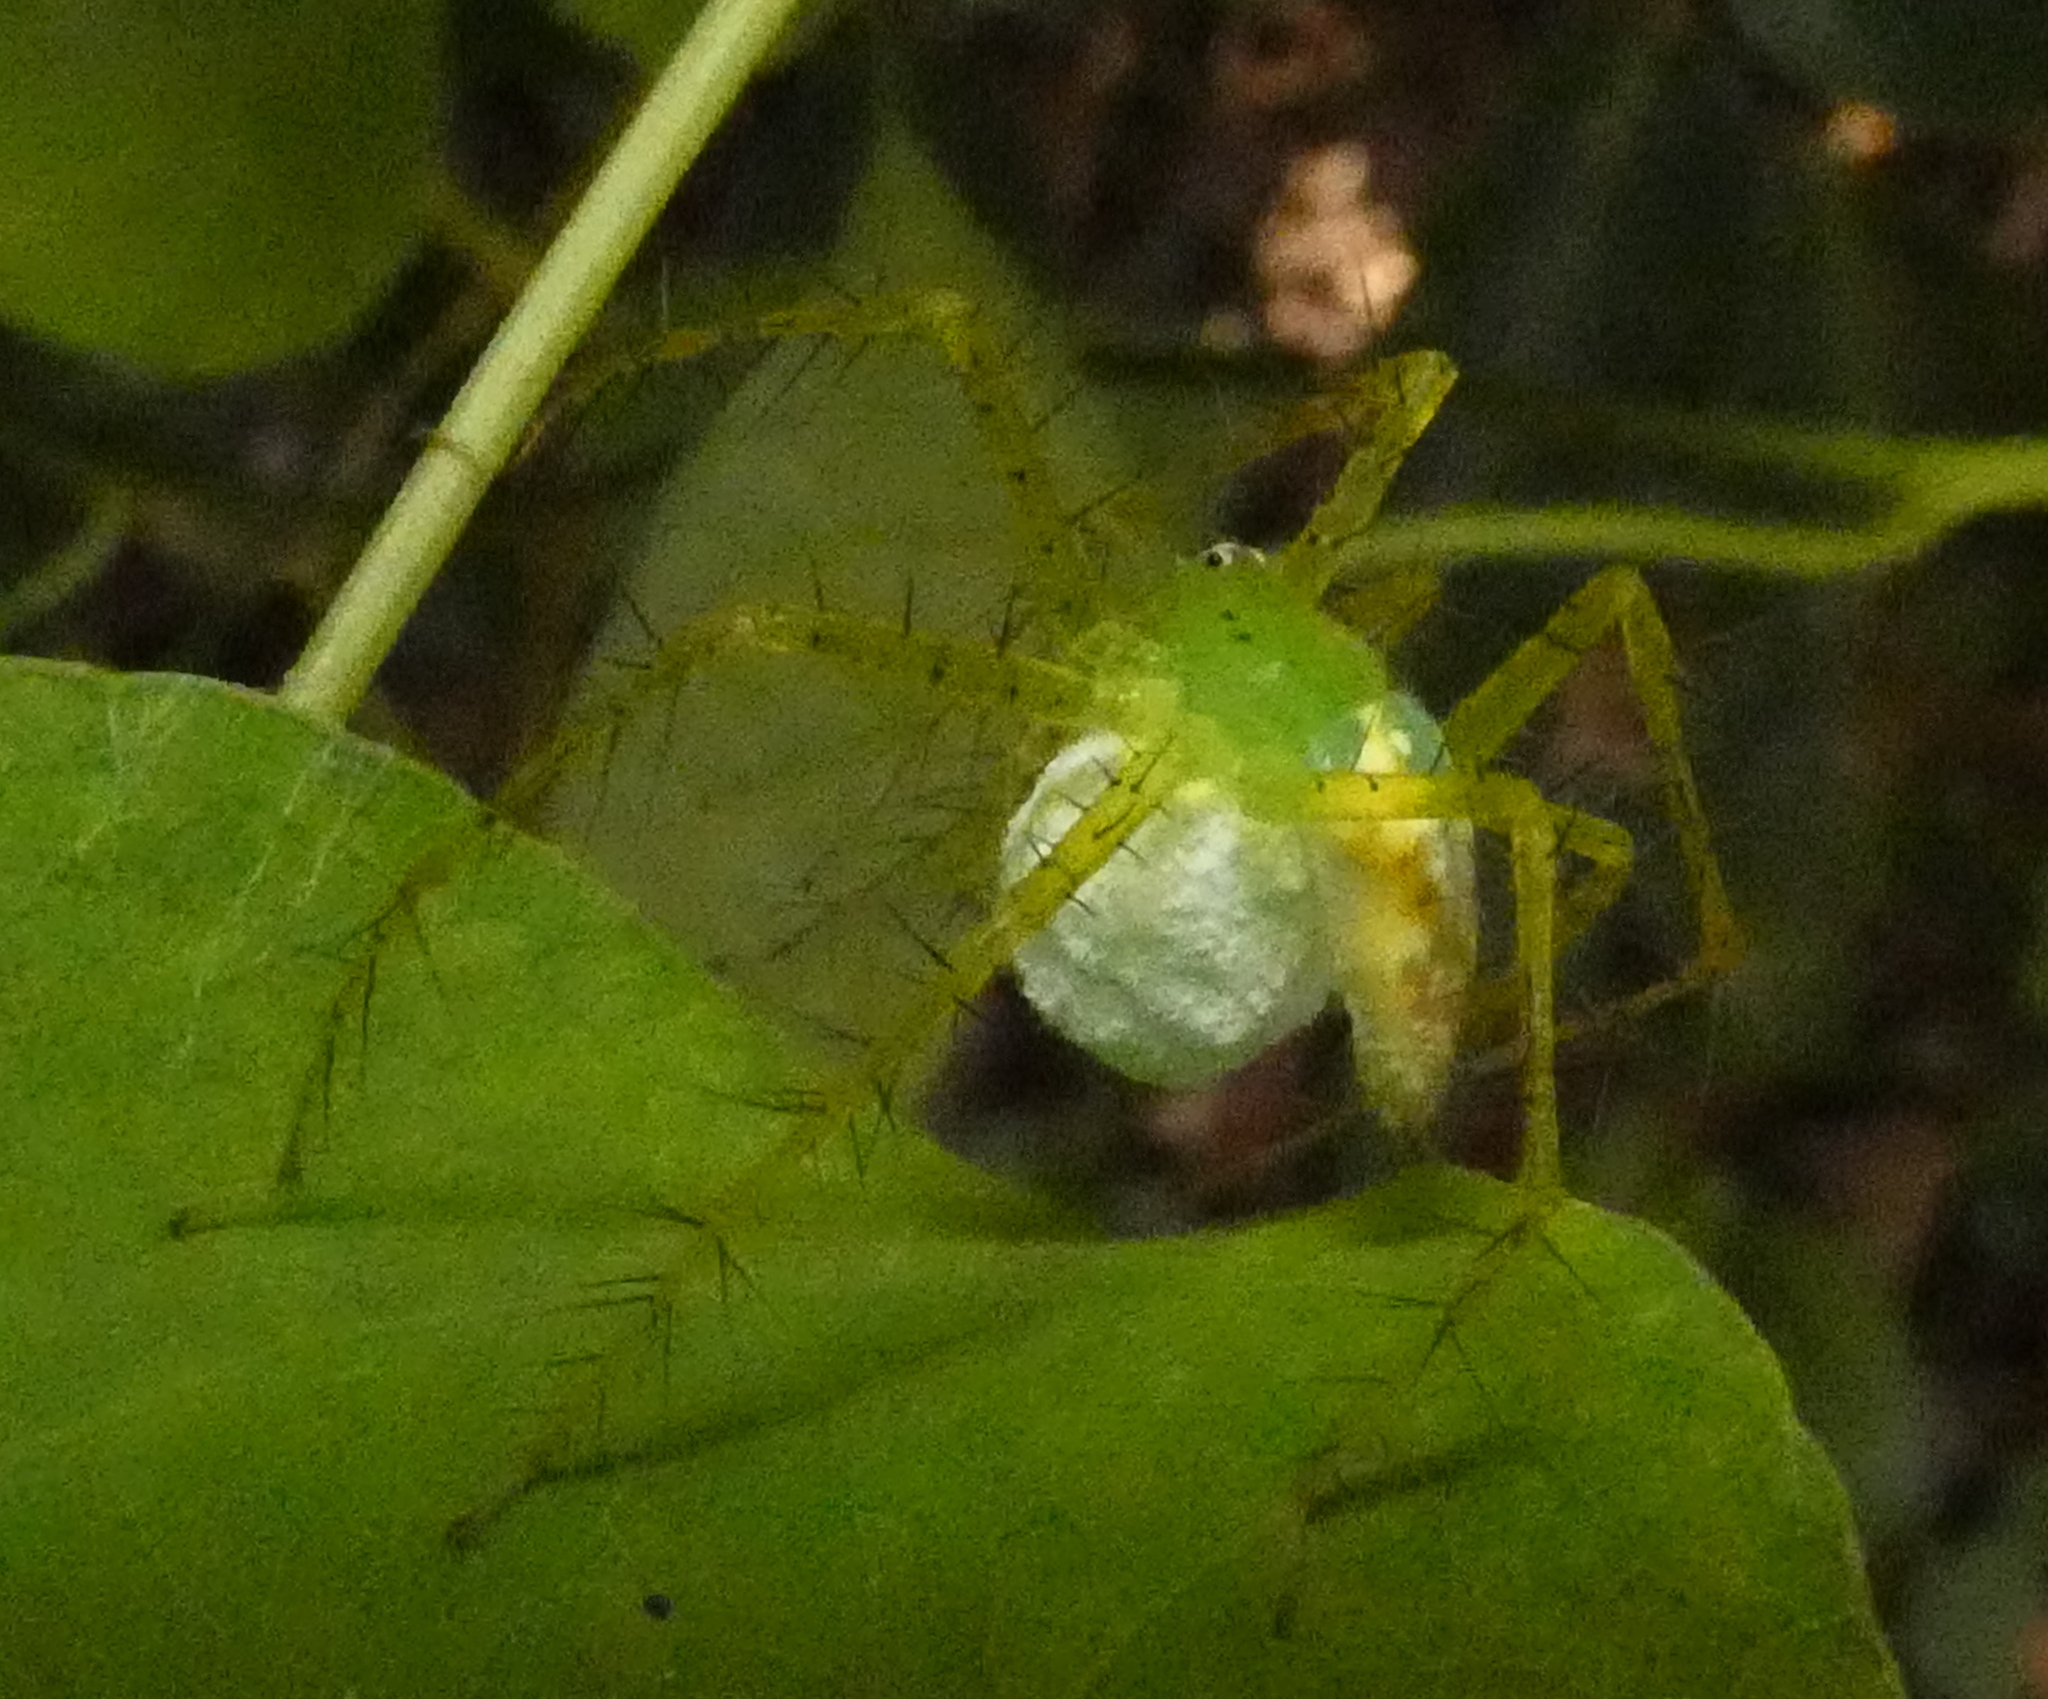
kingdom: Animalia
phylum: Arthropoda
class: Arachnida
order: Araneae
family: Pisauridae
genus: Architis
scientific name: Architis spinipes
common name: Nursery web spiders
